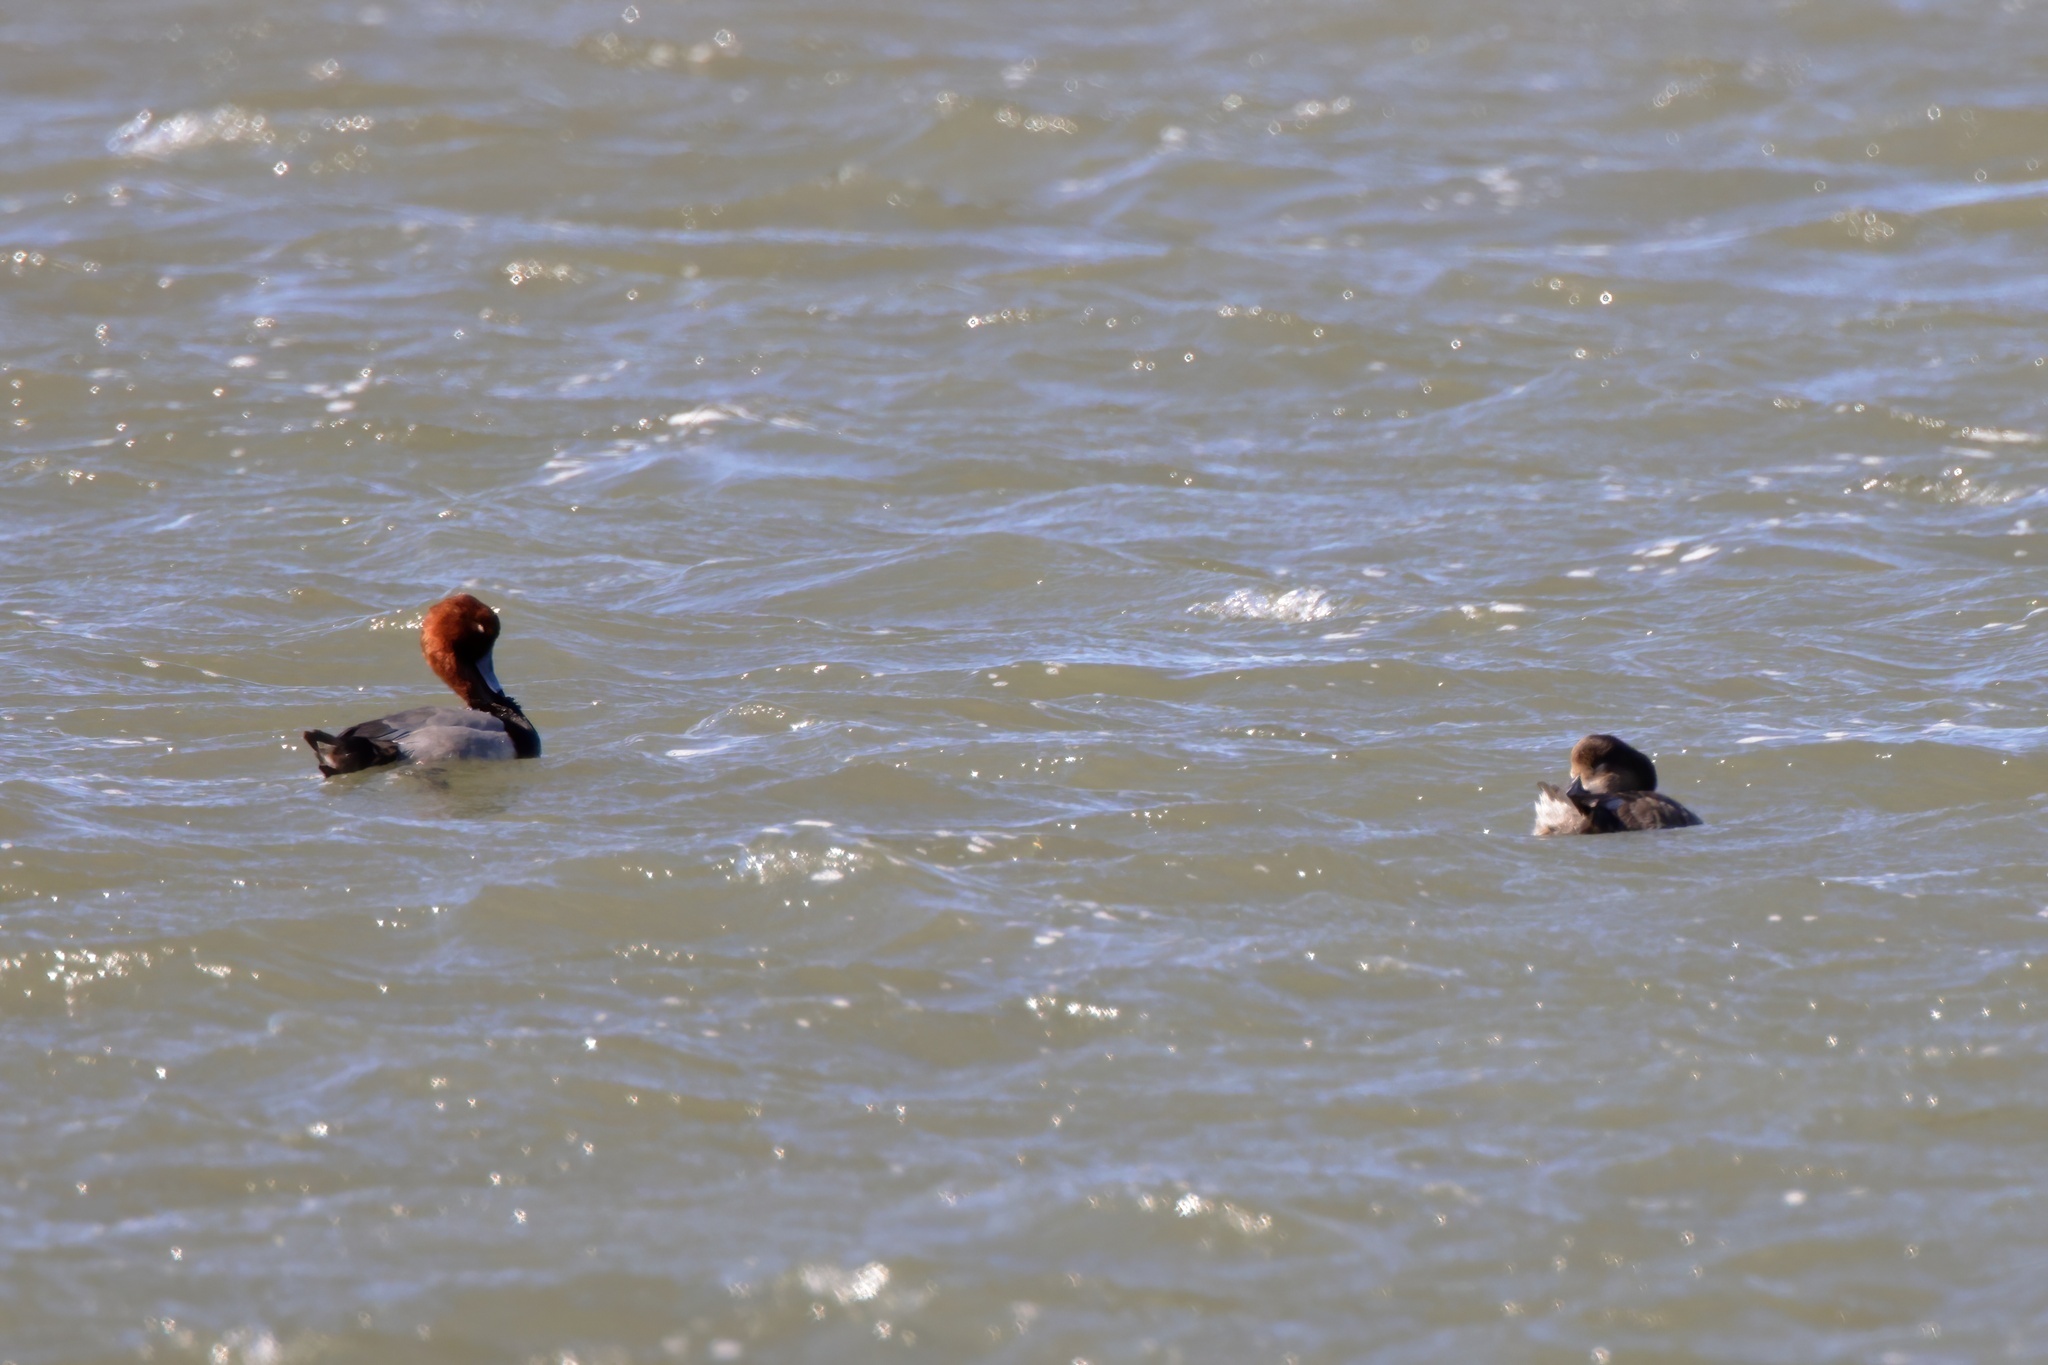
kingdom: Animalia
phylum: Chordata
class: Aves
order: Anseriformes
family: Anatidae
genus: Aythya
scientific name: Aythya americana
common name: Redhead
